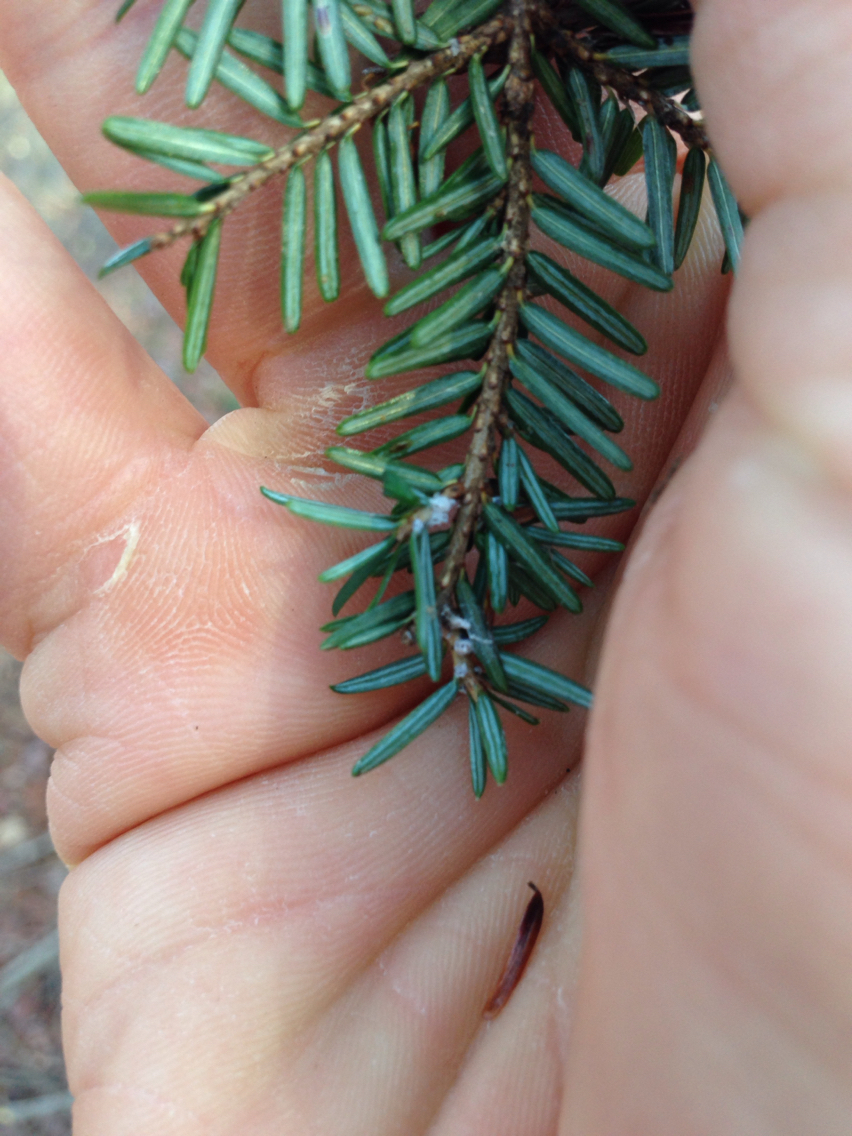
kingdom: Animalia
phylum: Arthropoda
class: Insecta
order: Hemiptera
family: Adelgidae
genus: Adelges
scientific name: Adelges tsugae
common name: Hemlock woolly adelgid
